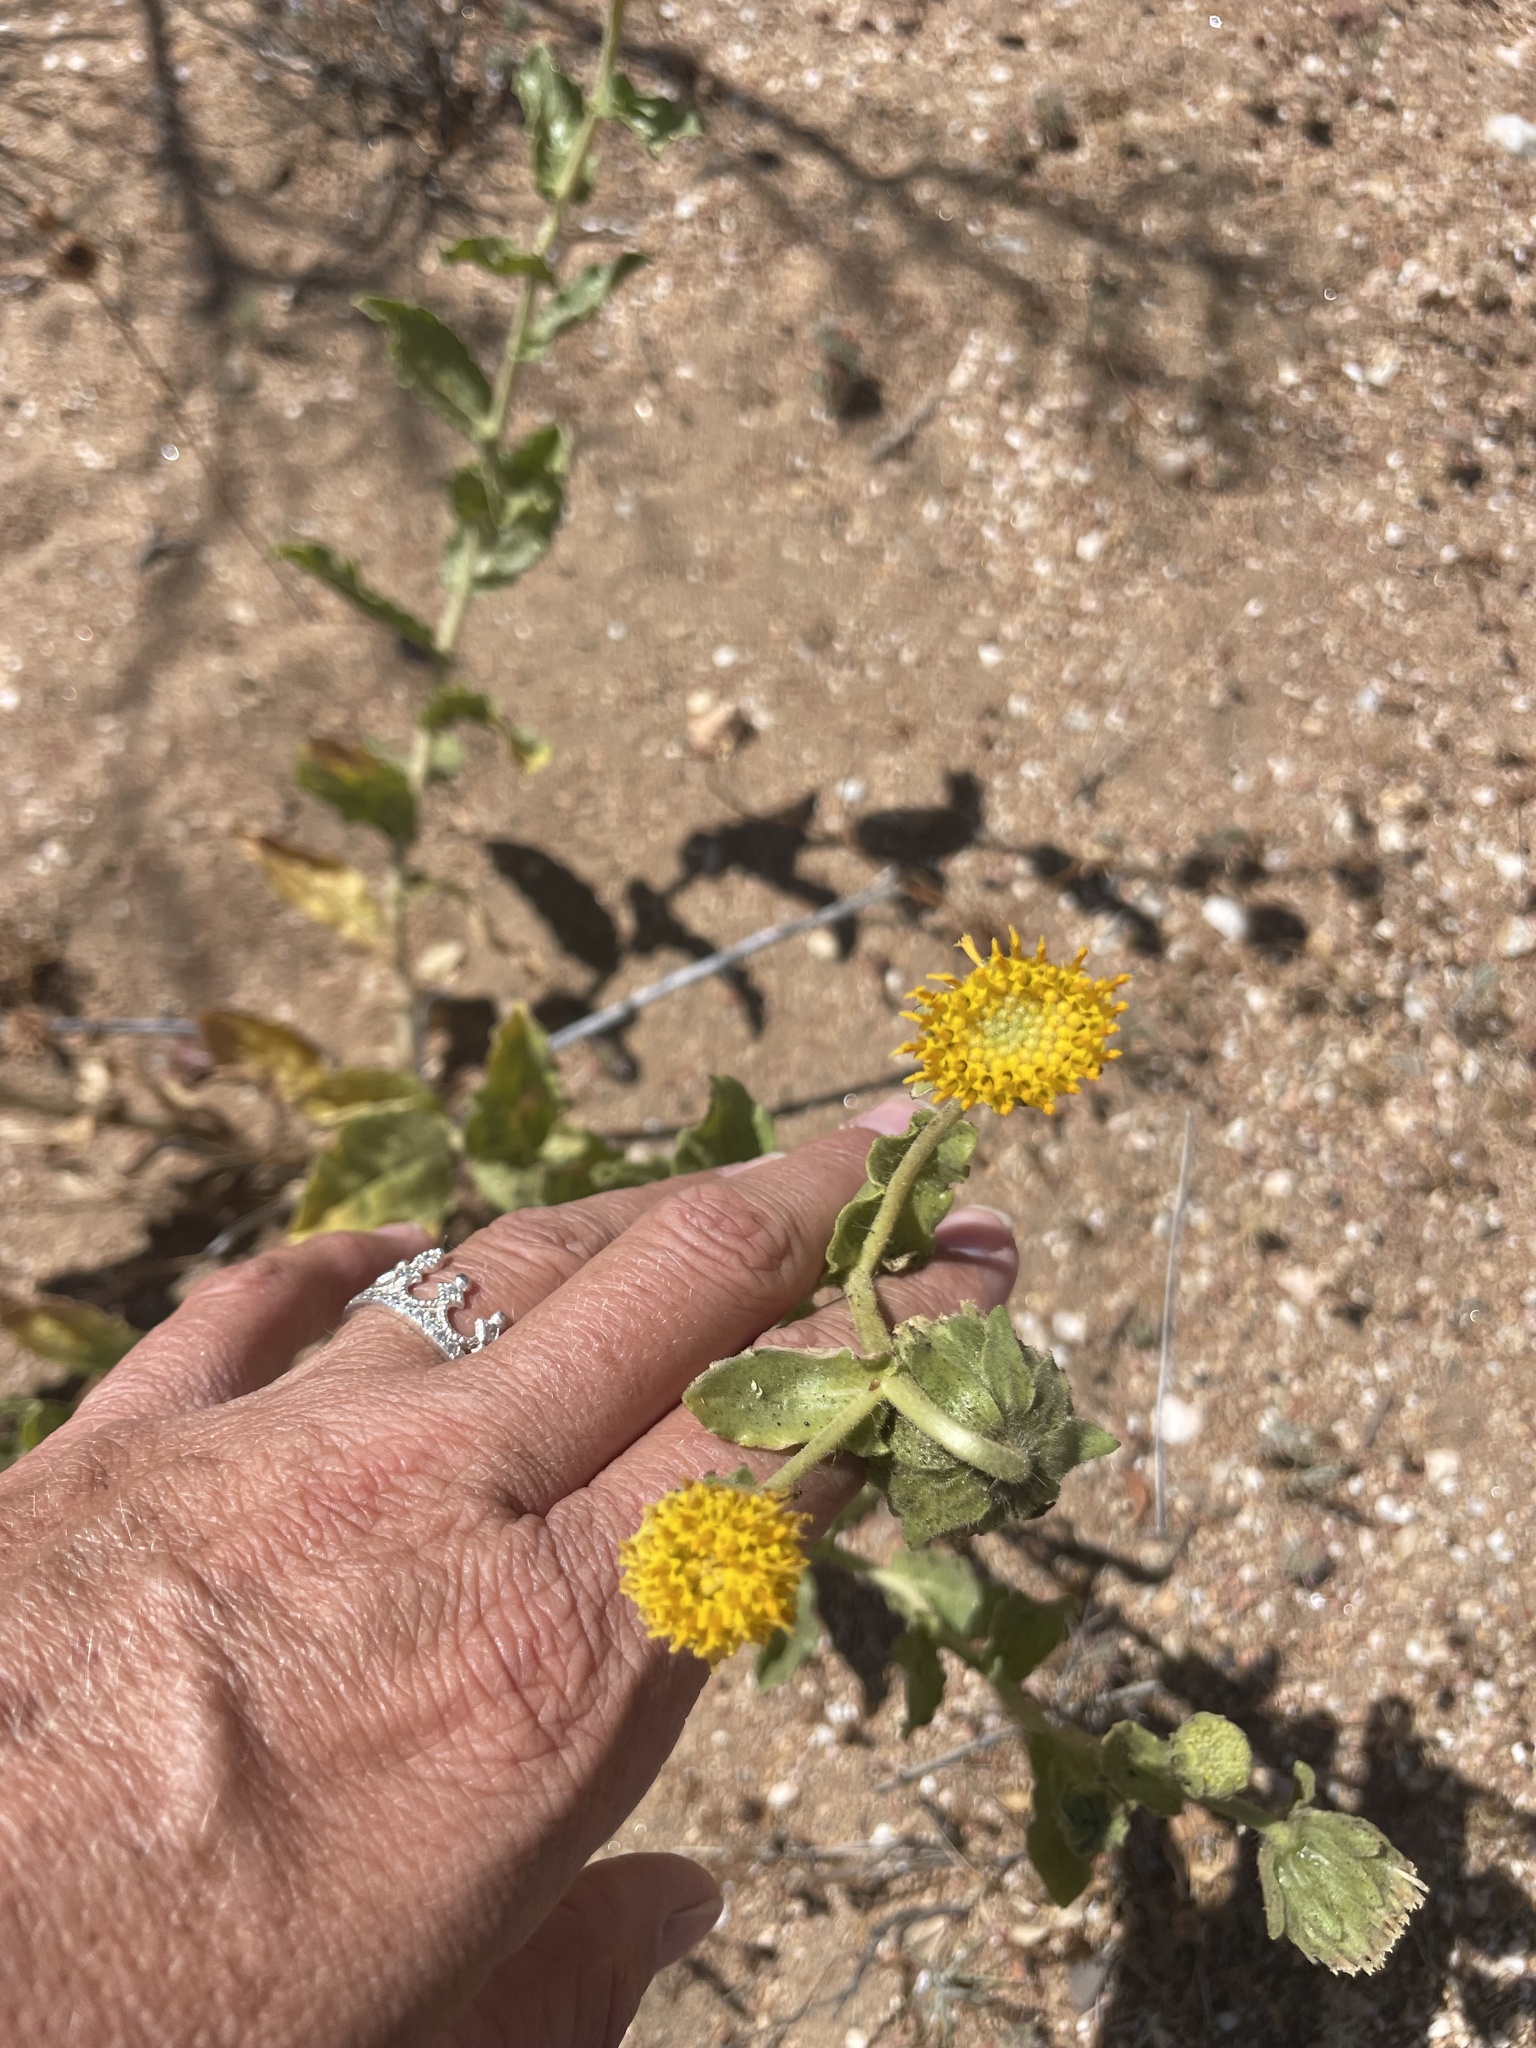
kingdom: Plantae
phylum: Tracheophyta
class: Magnoliopsida
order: Asterales
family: Asteraceae
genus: Geraea
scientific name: Geraea viscida
